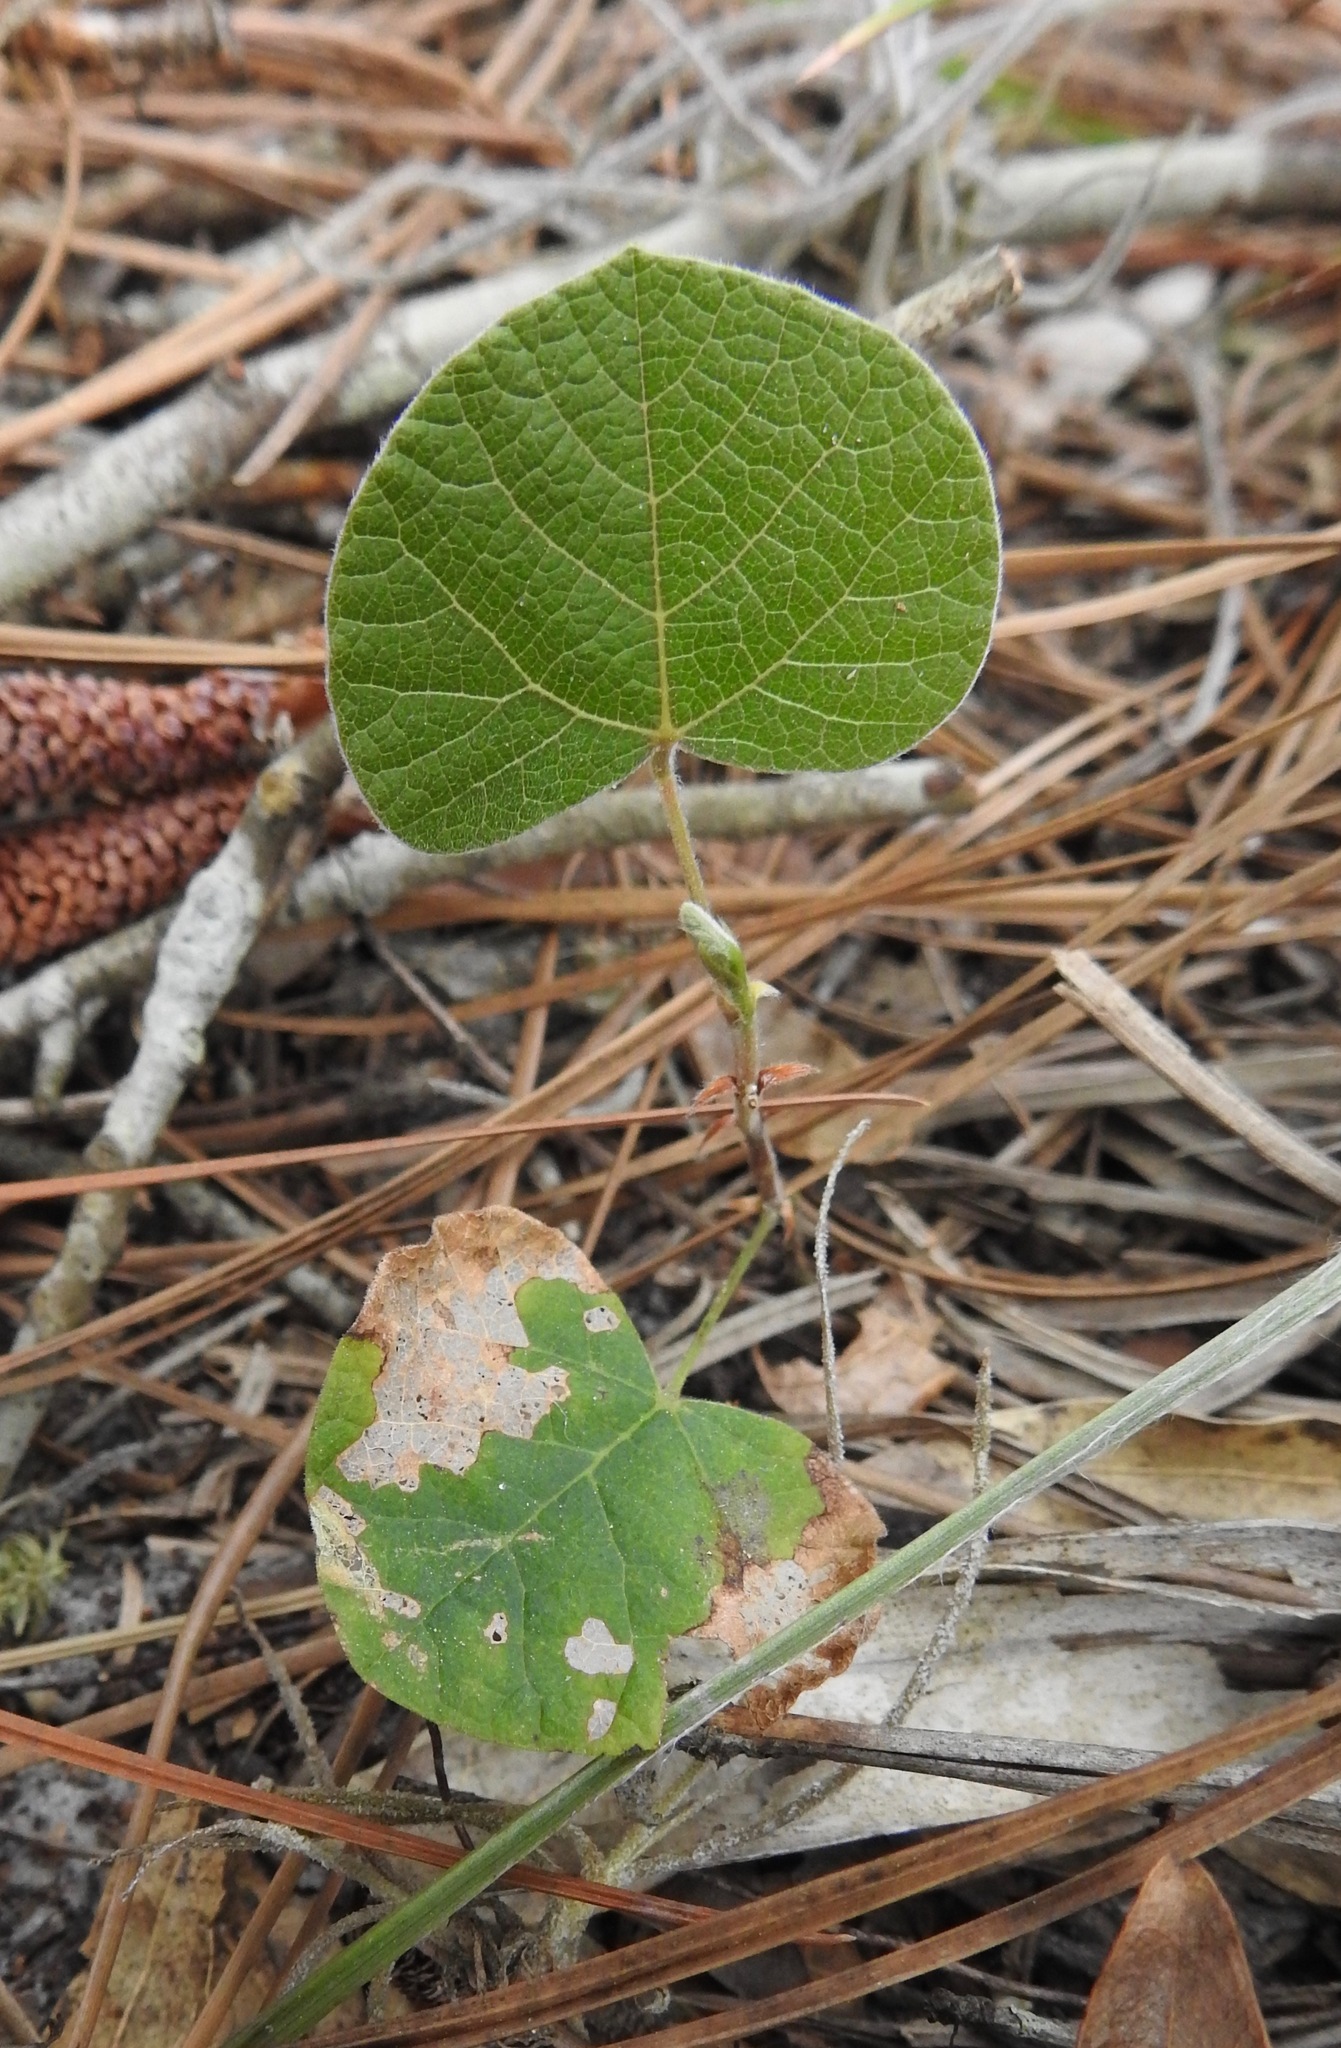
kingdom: Plantae
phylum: Tracheophyta
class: Magnoliopsida
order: Fabales
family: Fabaceae
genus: Rhynchosia
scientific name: Rhynchosia michauxii
